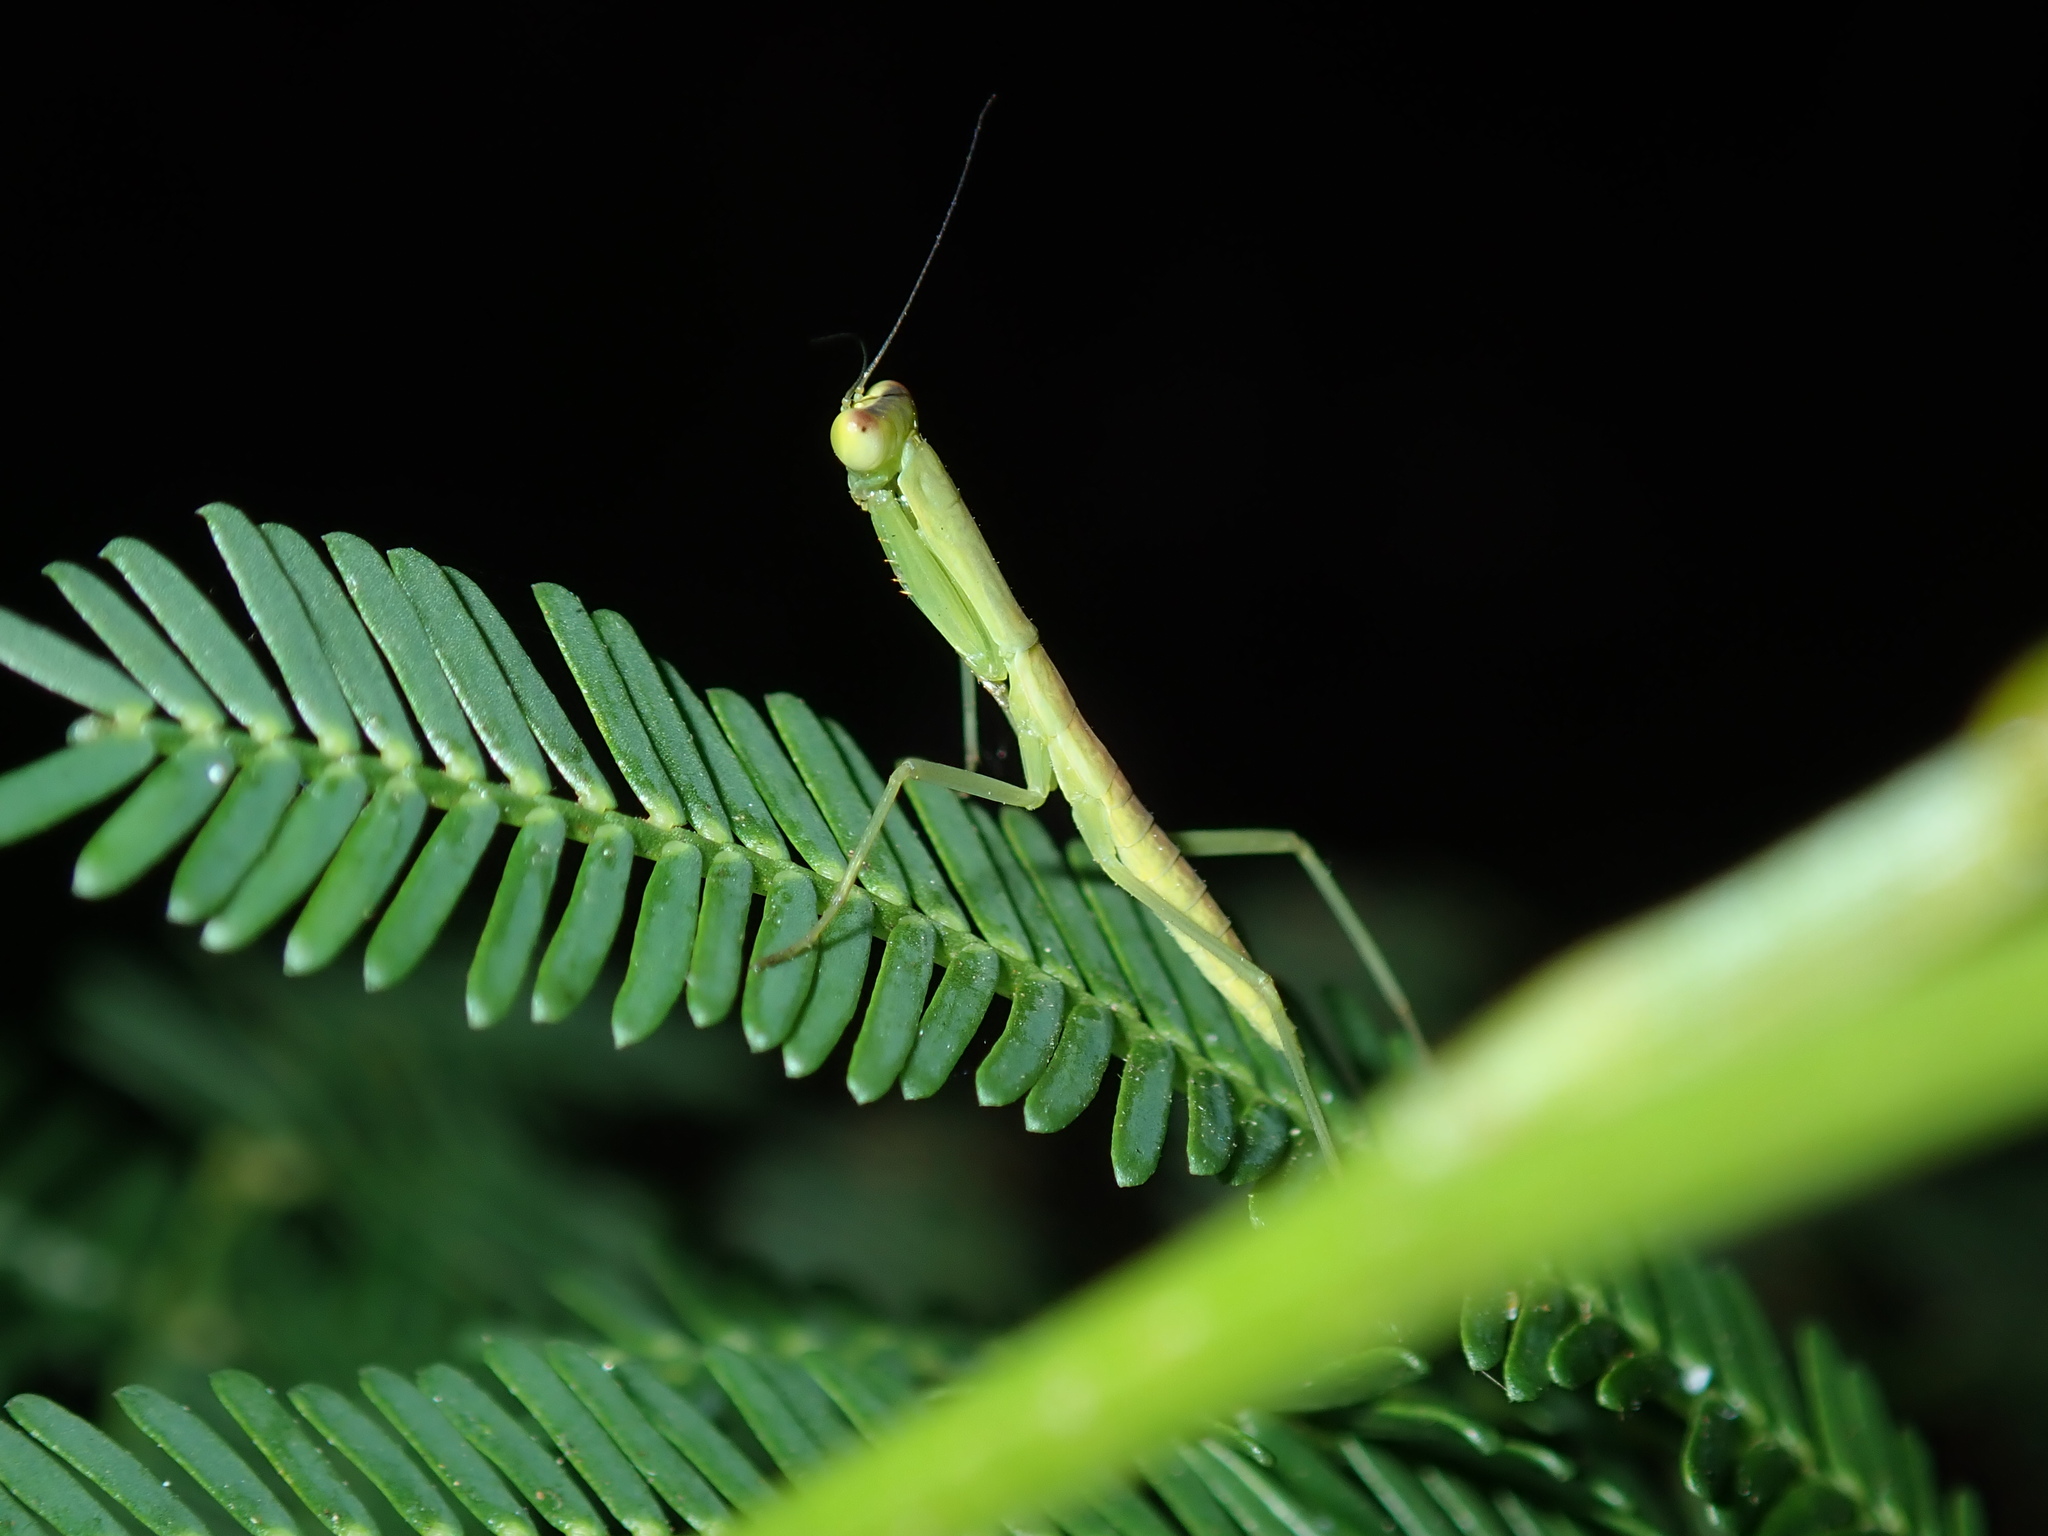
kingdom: Animalia
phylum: Arthropoda
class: Insecta
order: Mantodea
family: Mantidae
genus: Orthodera
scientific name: Orthodera ministralis
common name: Mantis
